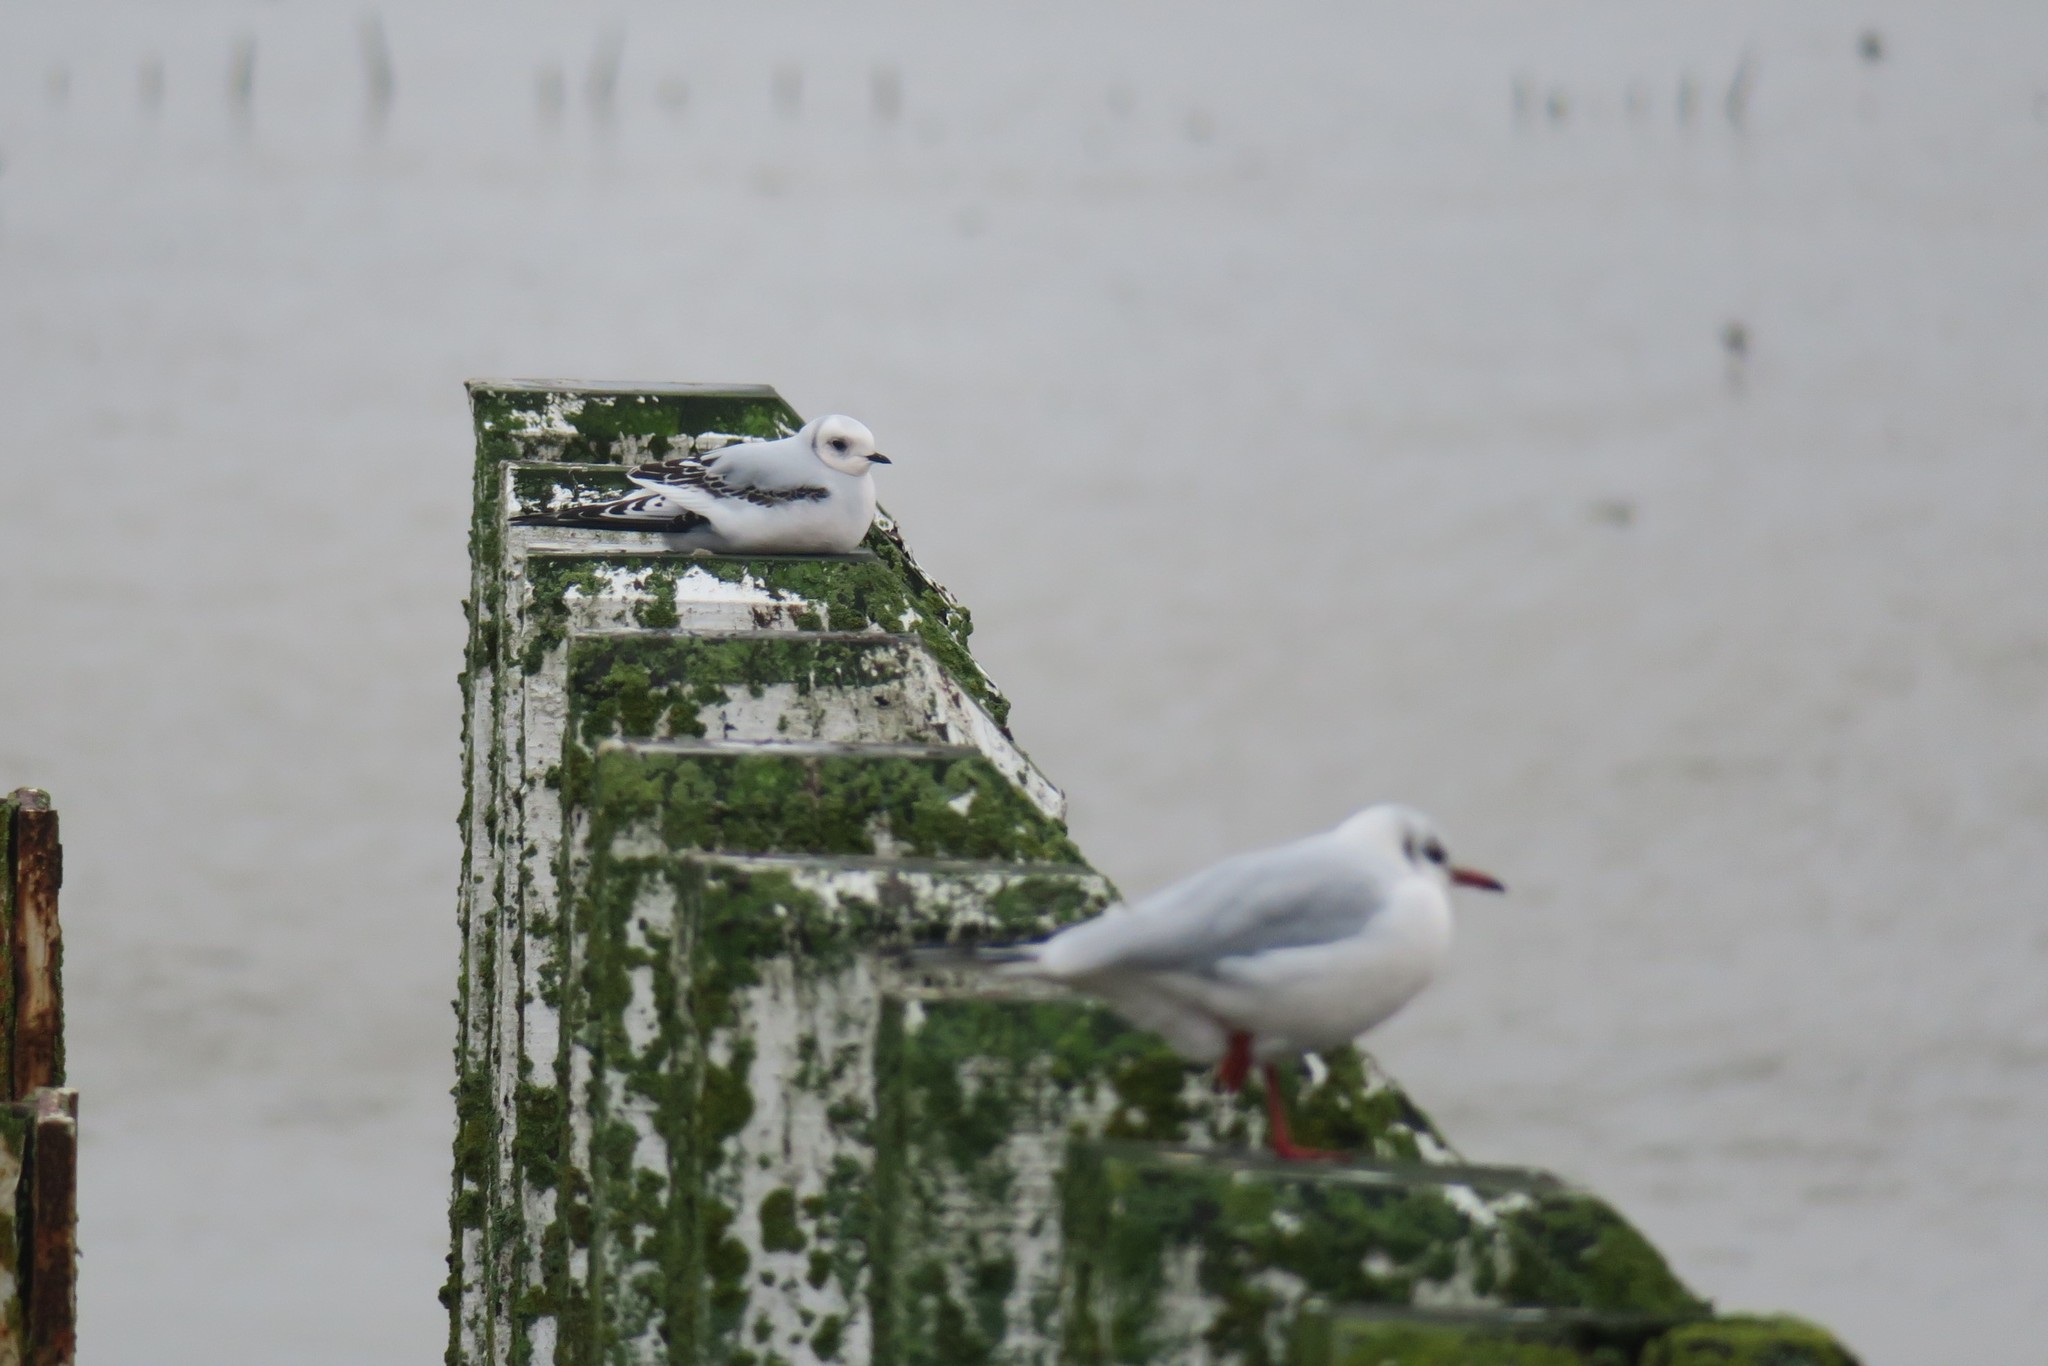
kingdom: Animalia
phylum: Chordata
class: Aves
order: Charadriiformes
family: Laridae
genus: Rhodostethia
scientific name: Rhodostethia rosea
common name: Ross's gull
